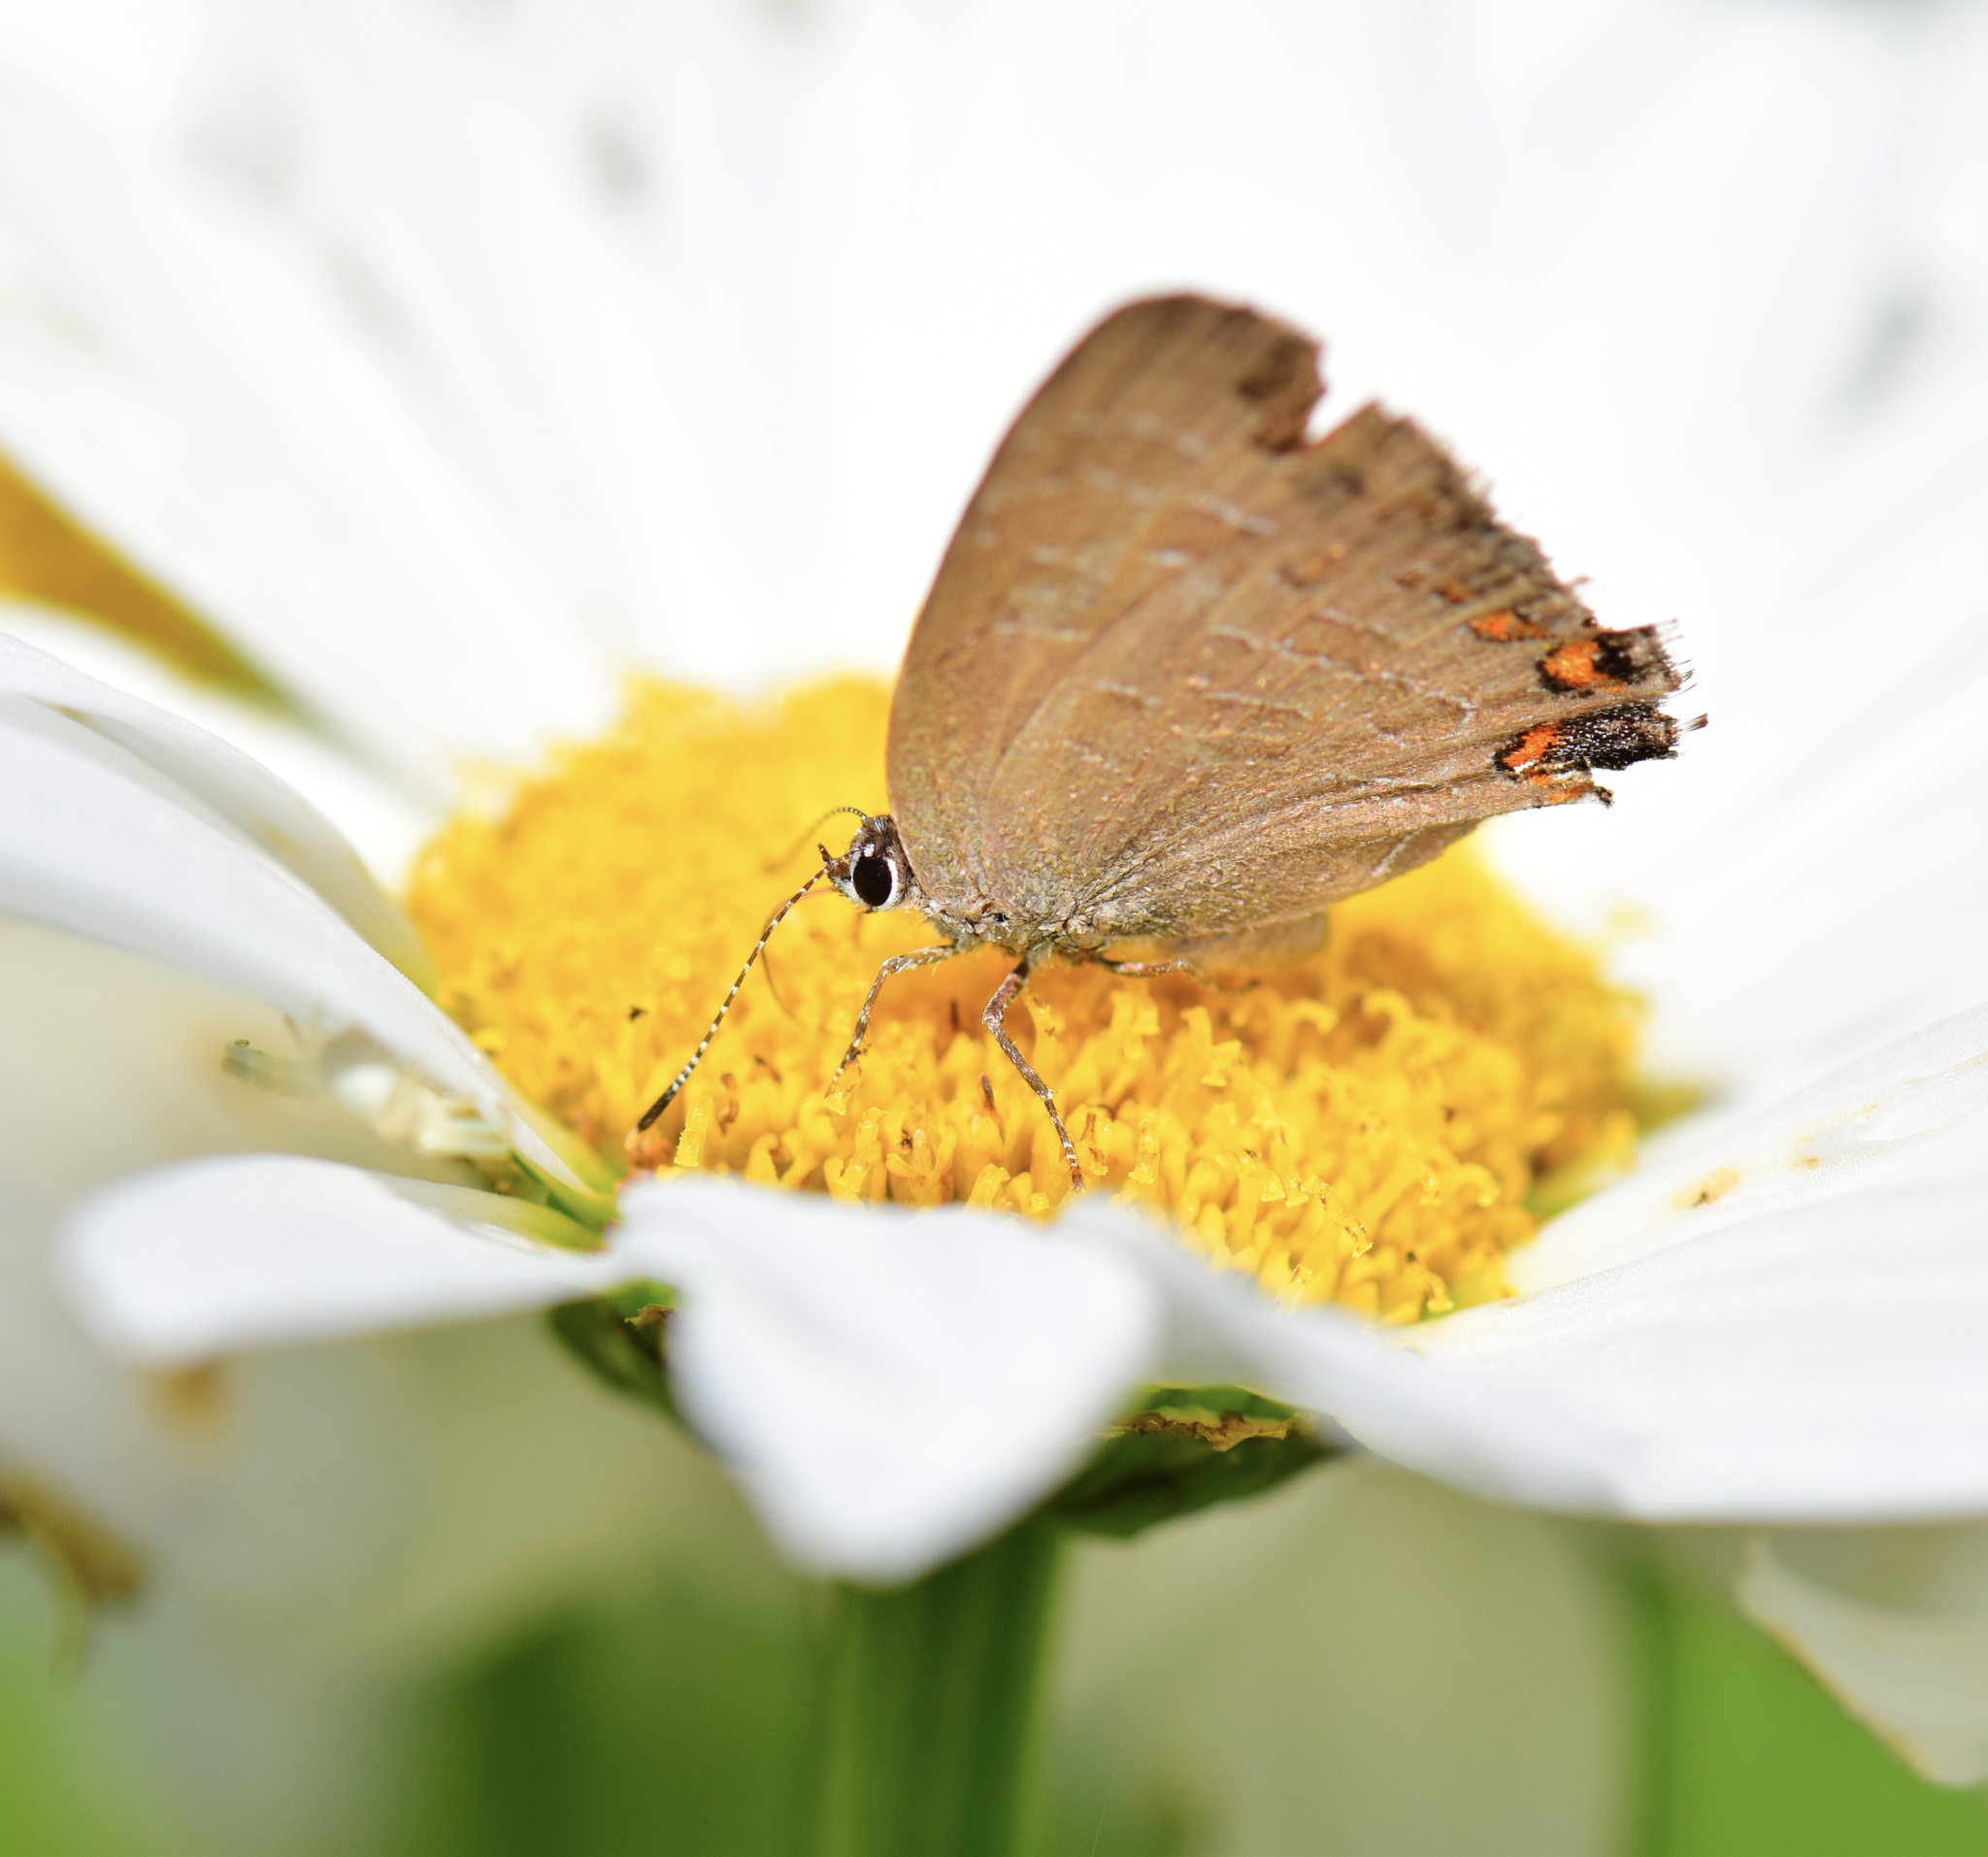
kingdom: Animalia
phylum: Arthropoda
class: Insecta
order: Lepidoptera
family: Lycaenidae
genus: Satyrium
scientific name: Satyrium liparops
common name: Striped hairstreak
